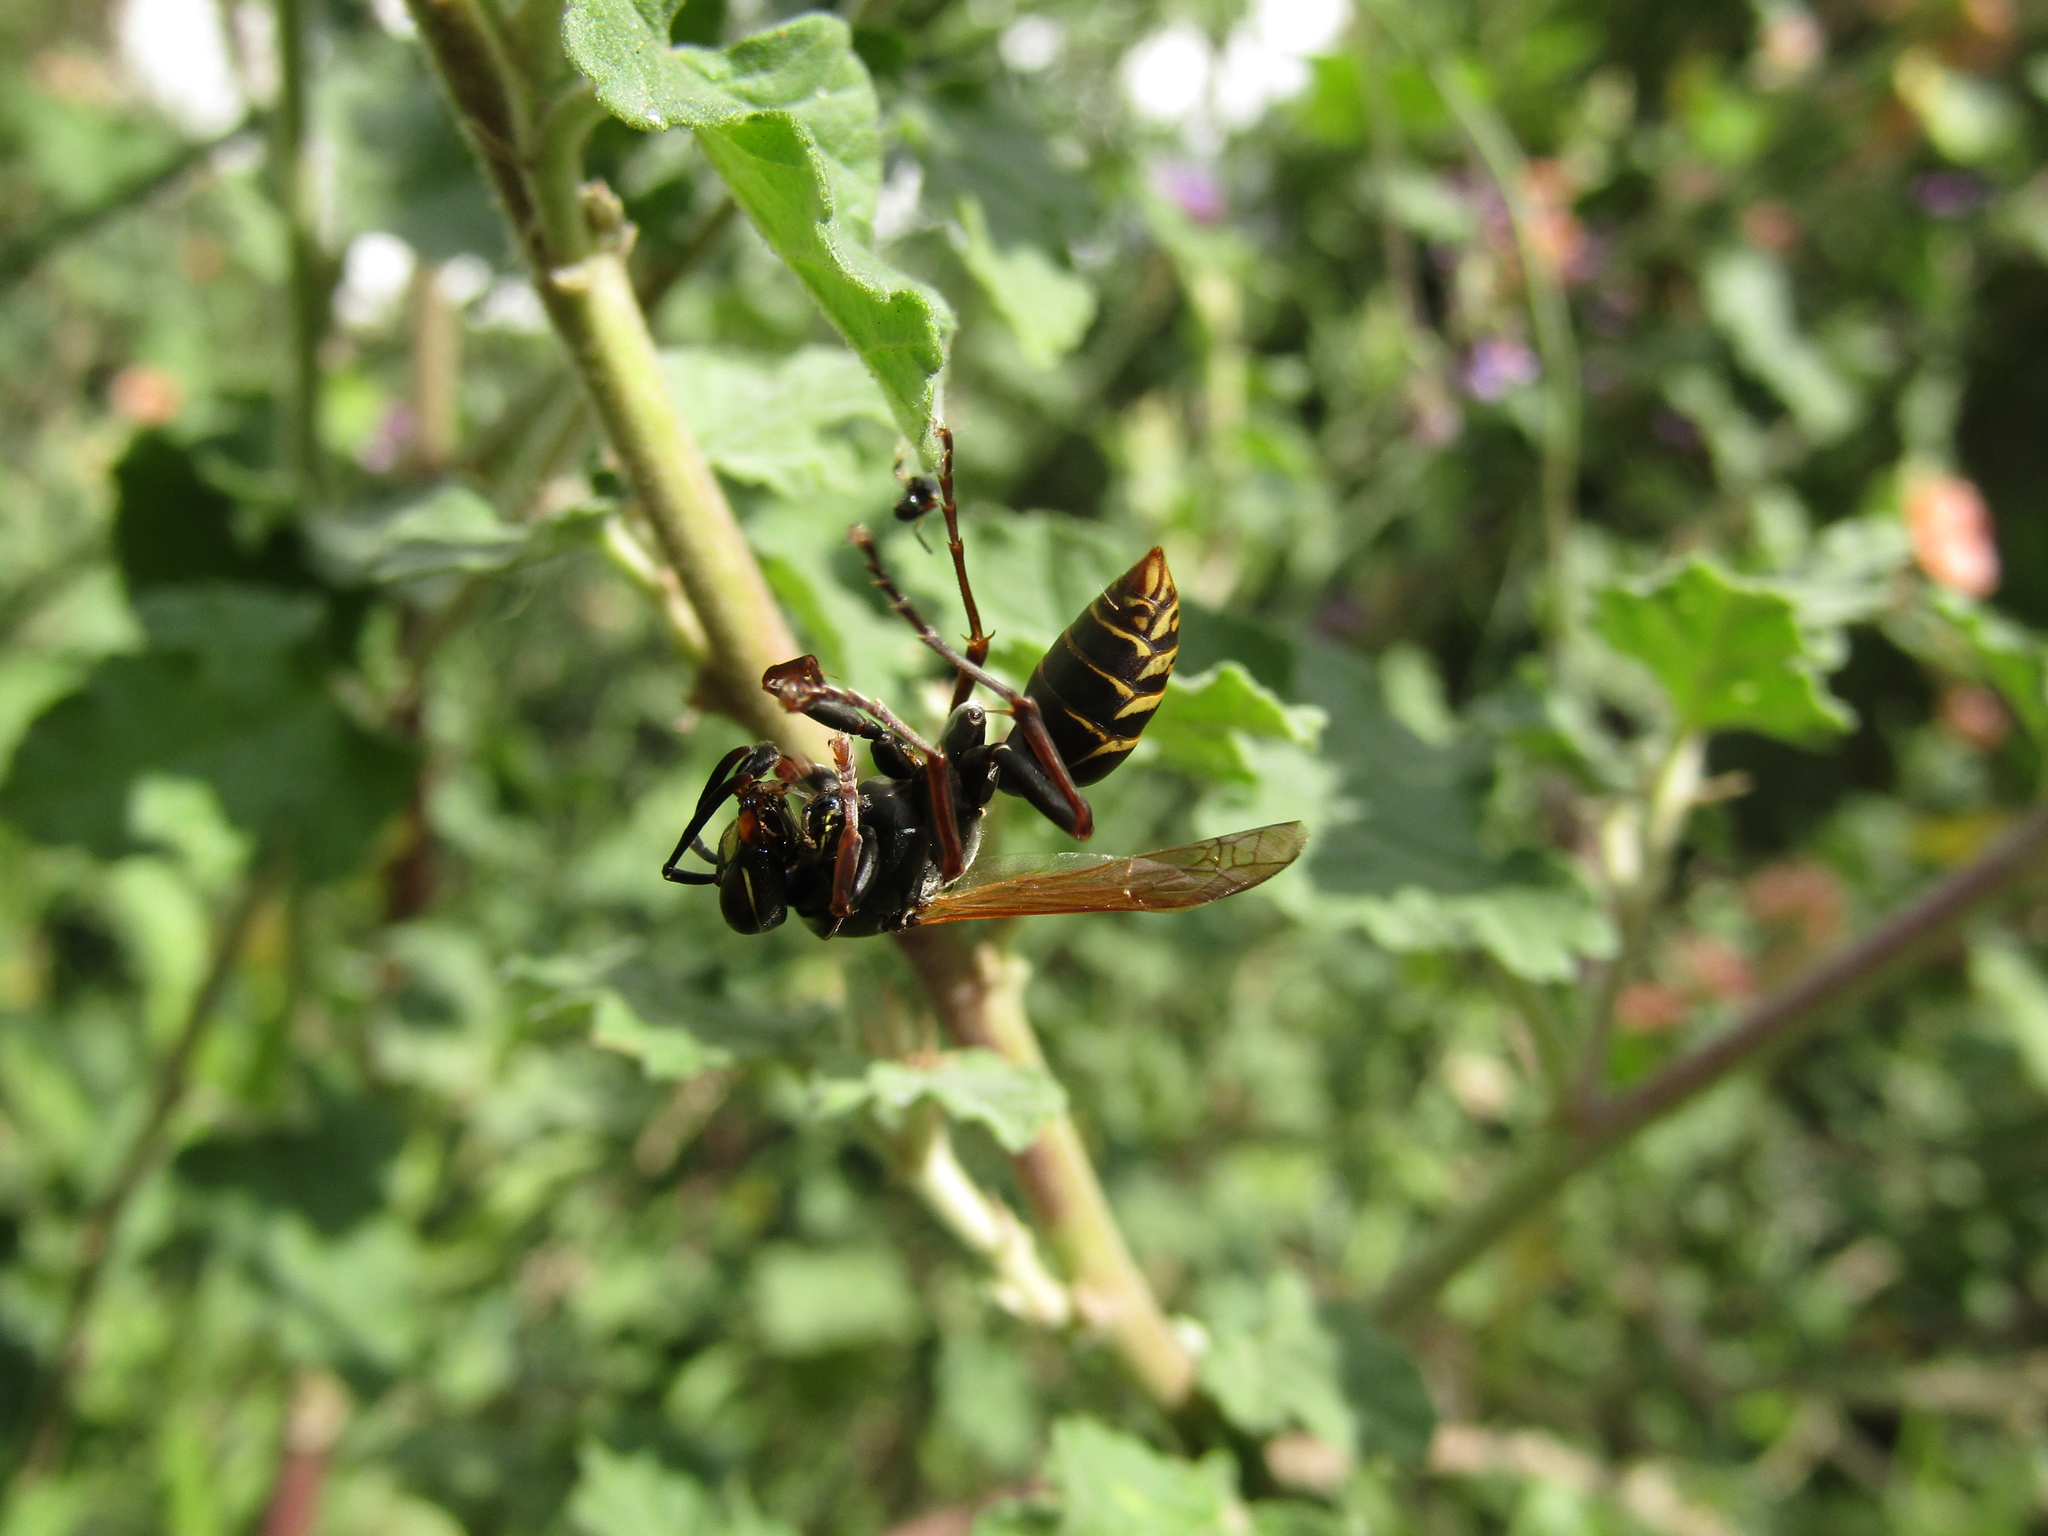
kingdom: Animalia
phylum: Arthropoda
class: Insecta
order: Hymenoptera
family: Eumenidae
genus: Polistes
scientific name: Polistes cinerascens
